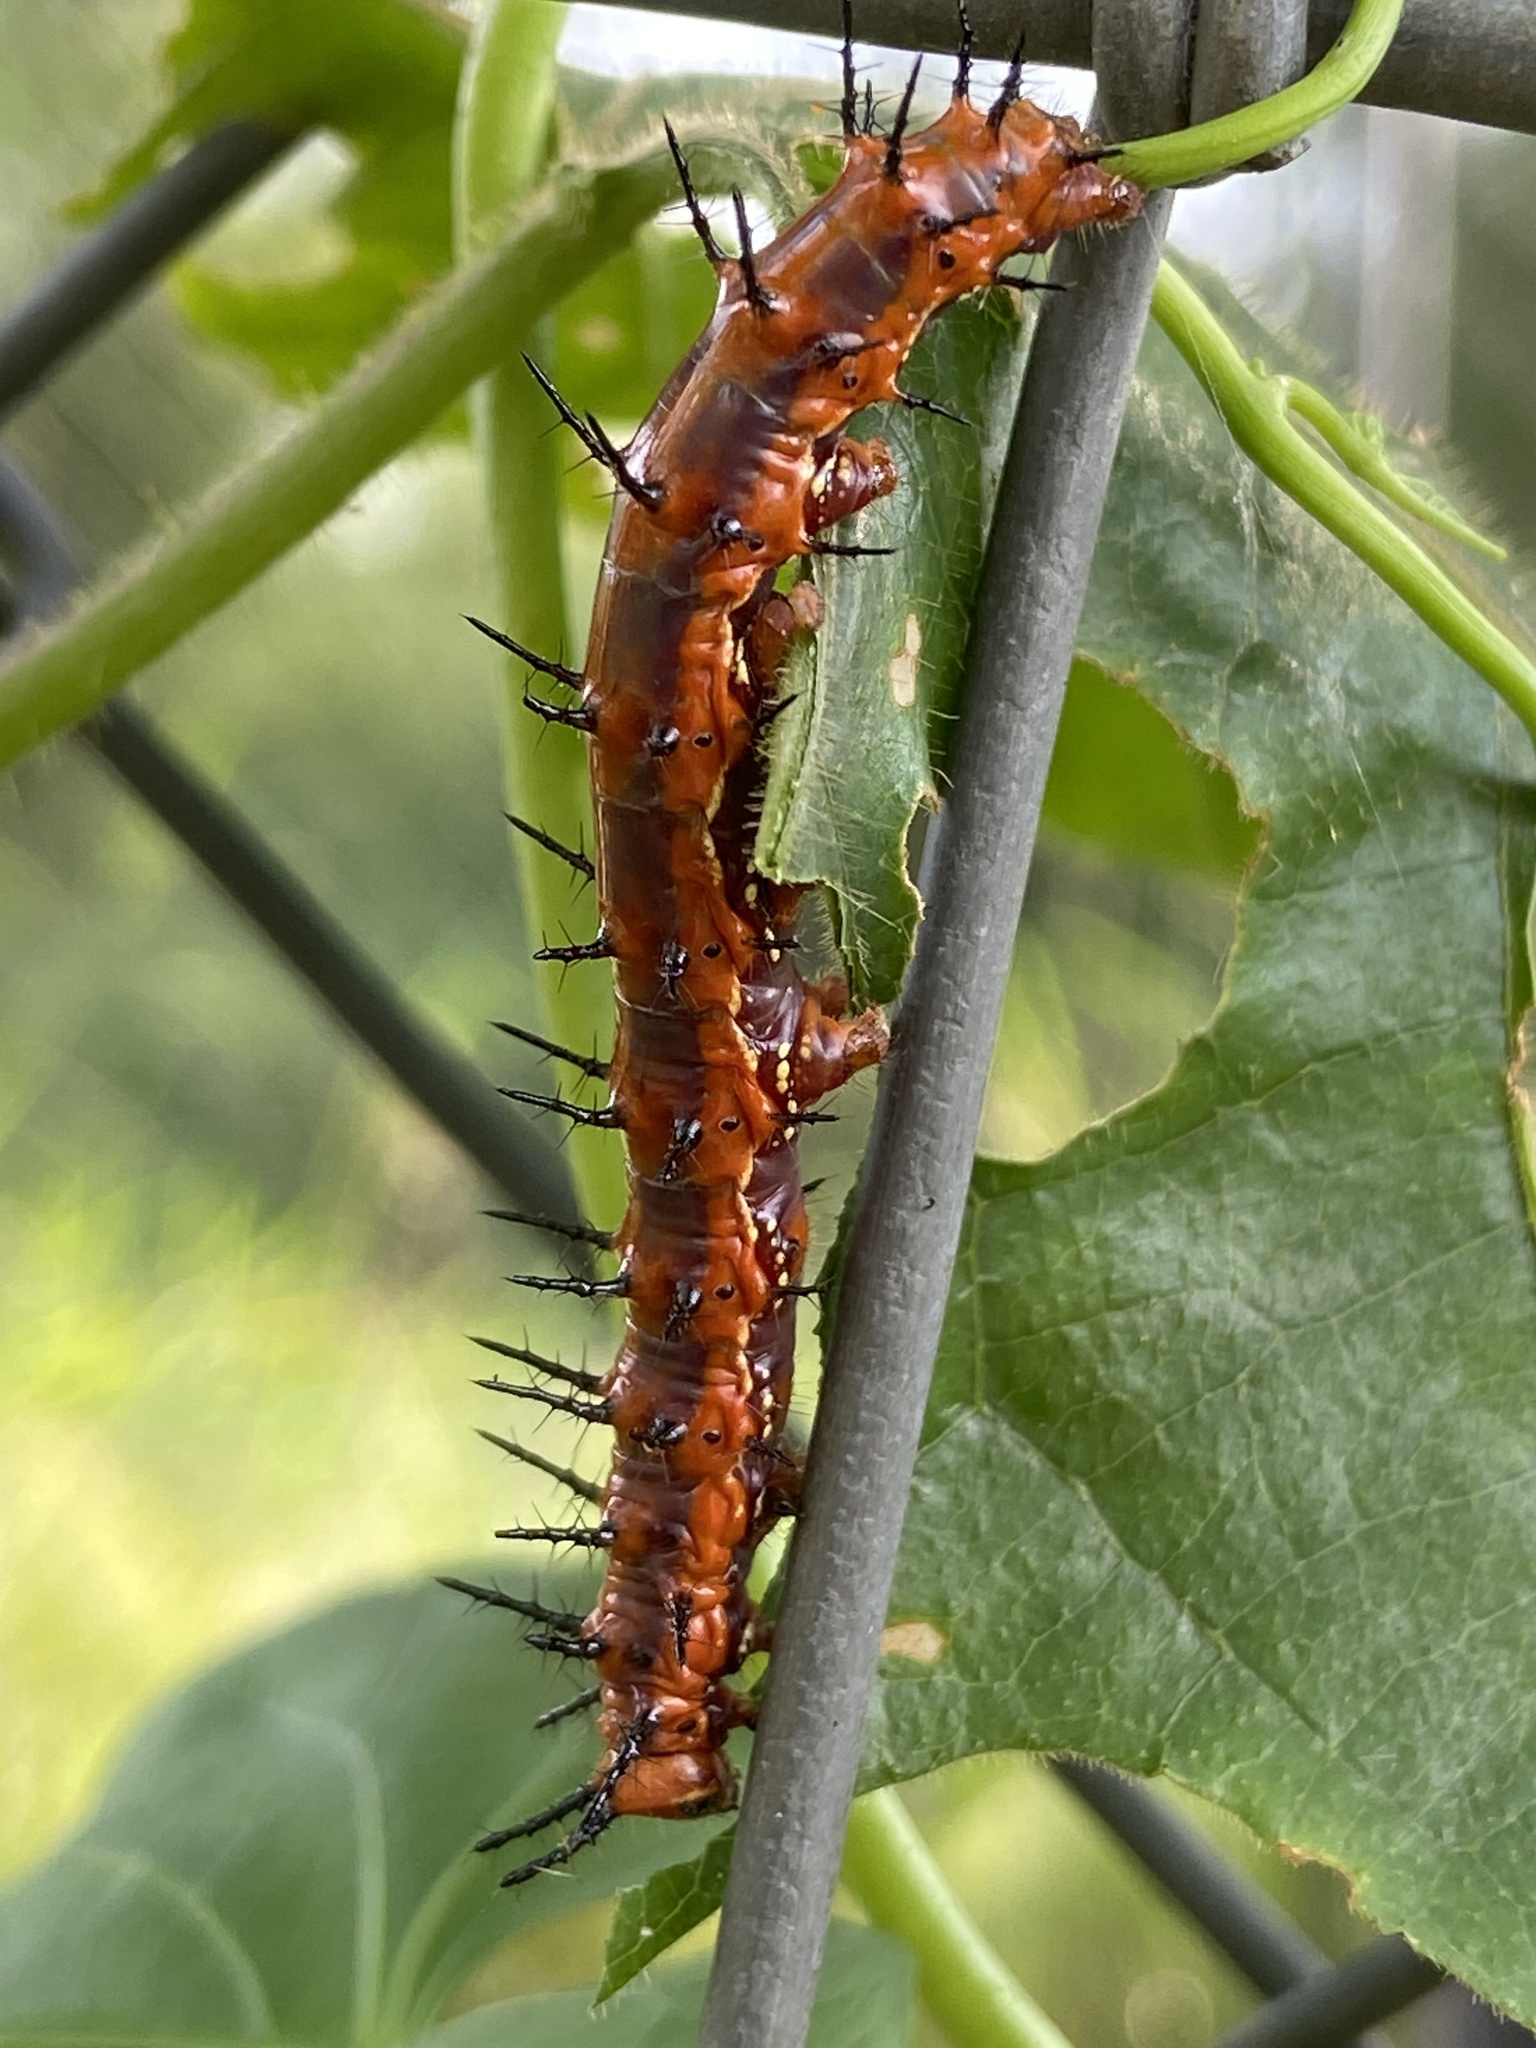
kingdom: Animalia
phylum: Arthropoda
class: Insecta
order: Lepidoptera
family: Nymphalidae
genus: Dione
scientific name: Dione vanillae
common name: Gulf fritillary
